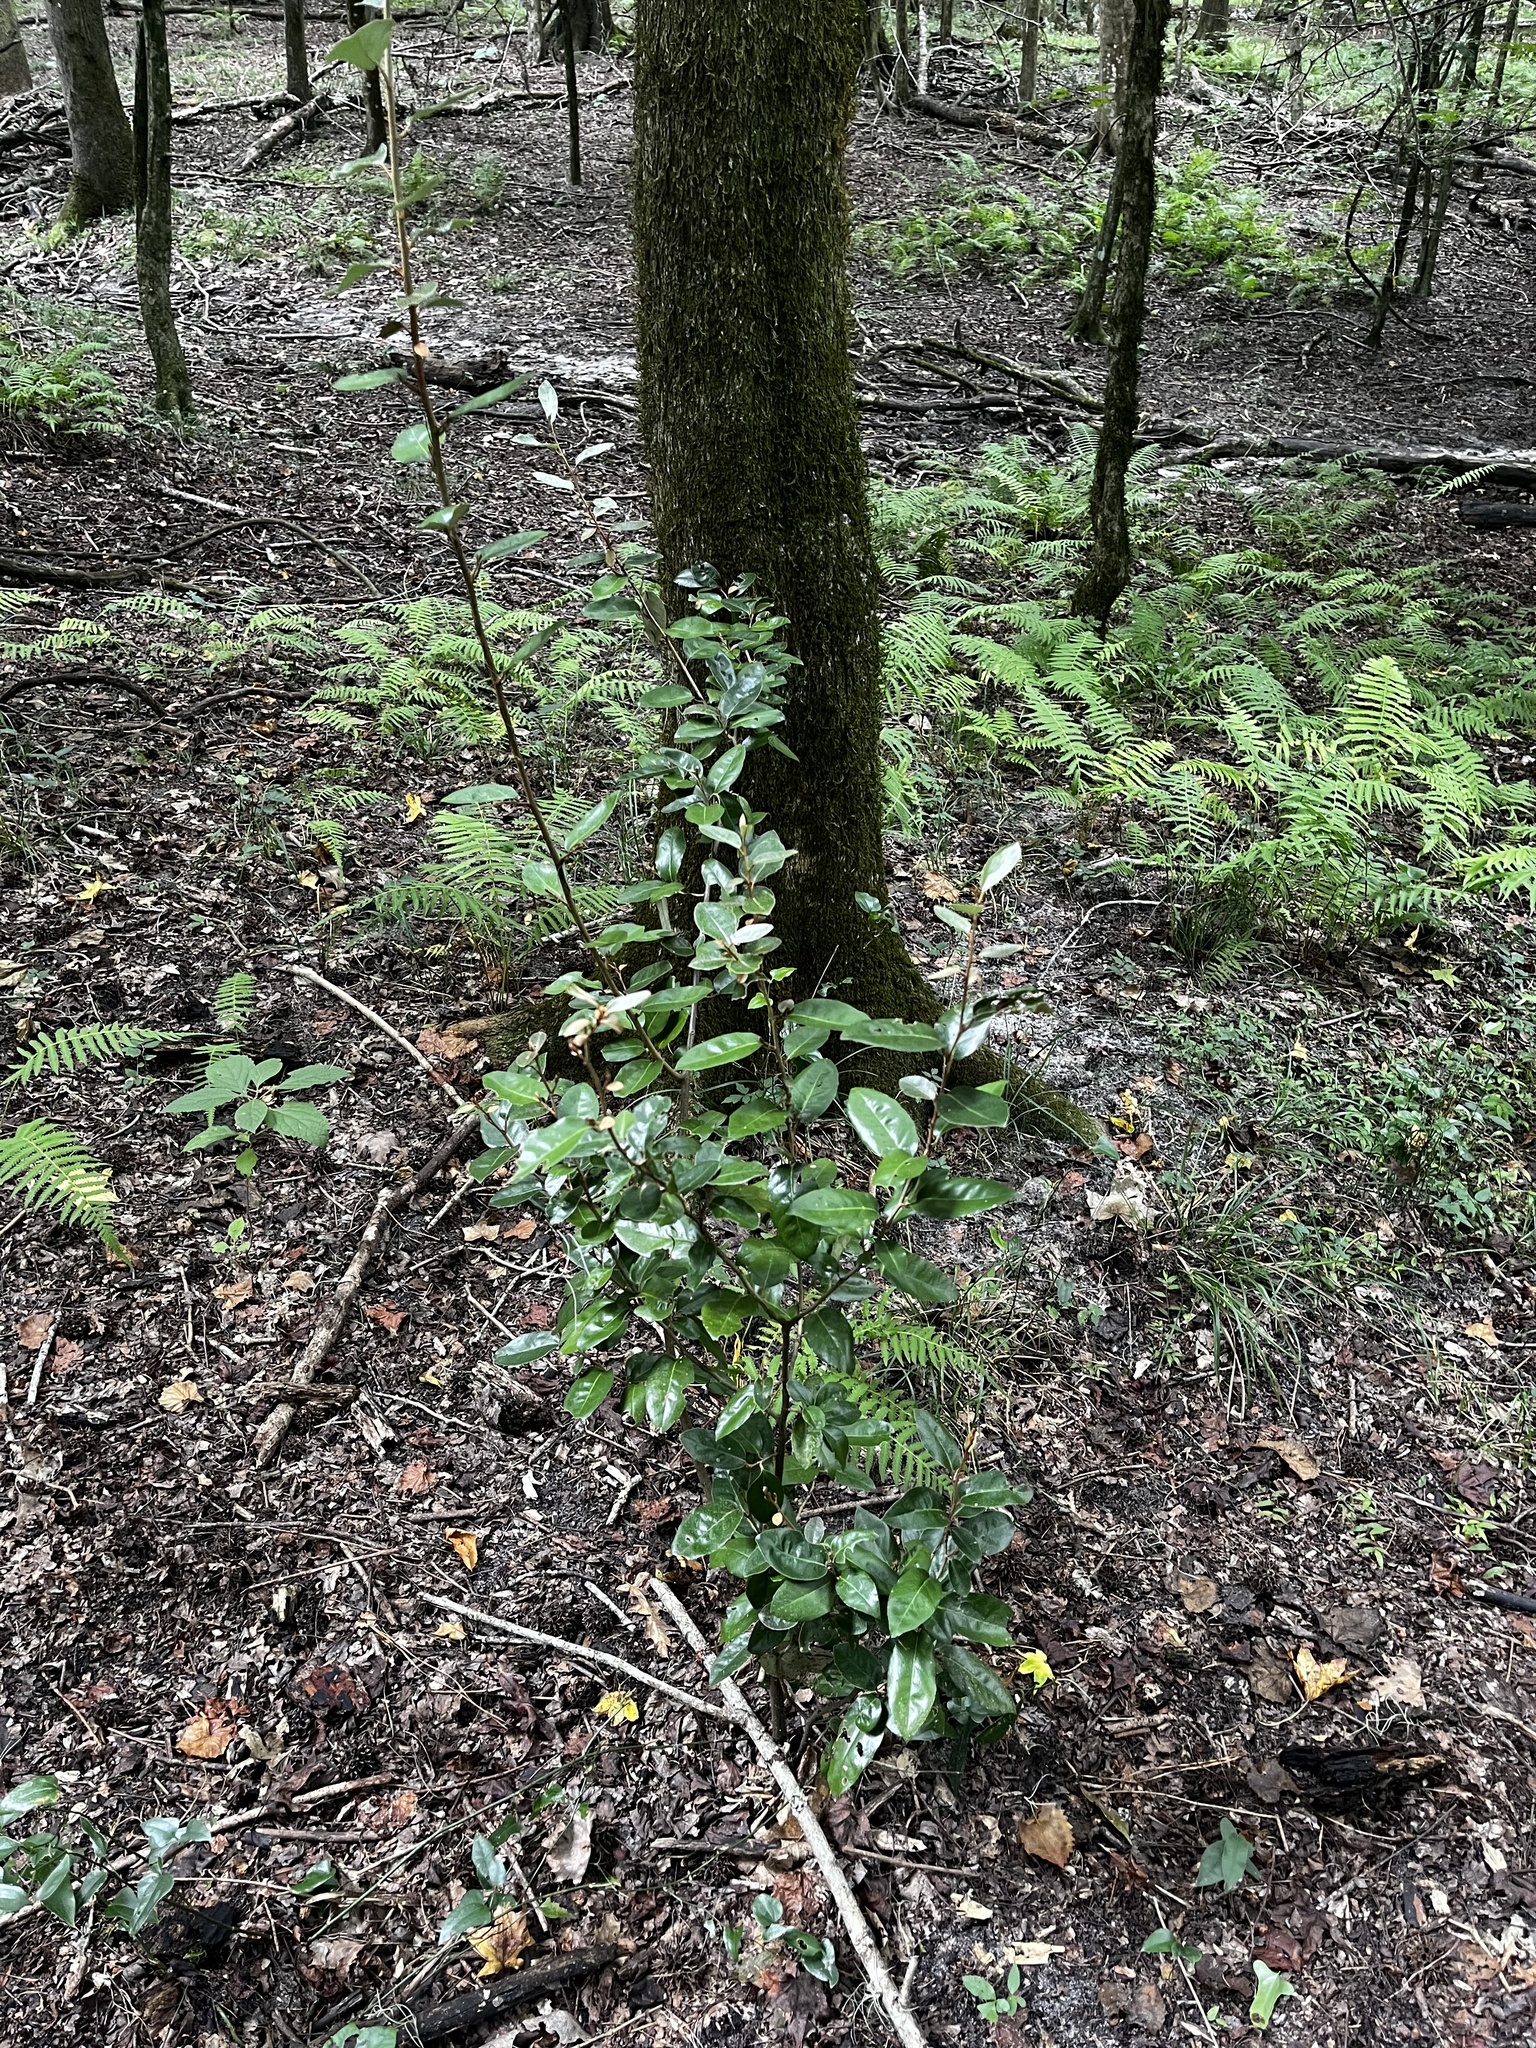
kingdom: Plantae
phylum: Tracheophyta
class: Magnoliopsida
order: Rosales
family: Elaeagnaceae
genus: Elaeagnus
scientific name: Elaeagnus pungens
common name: Spiny oleaster
